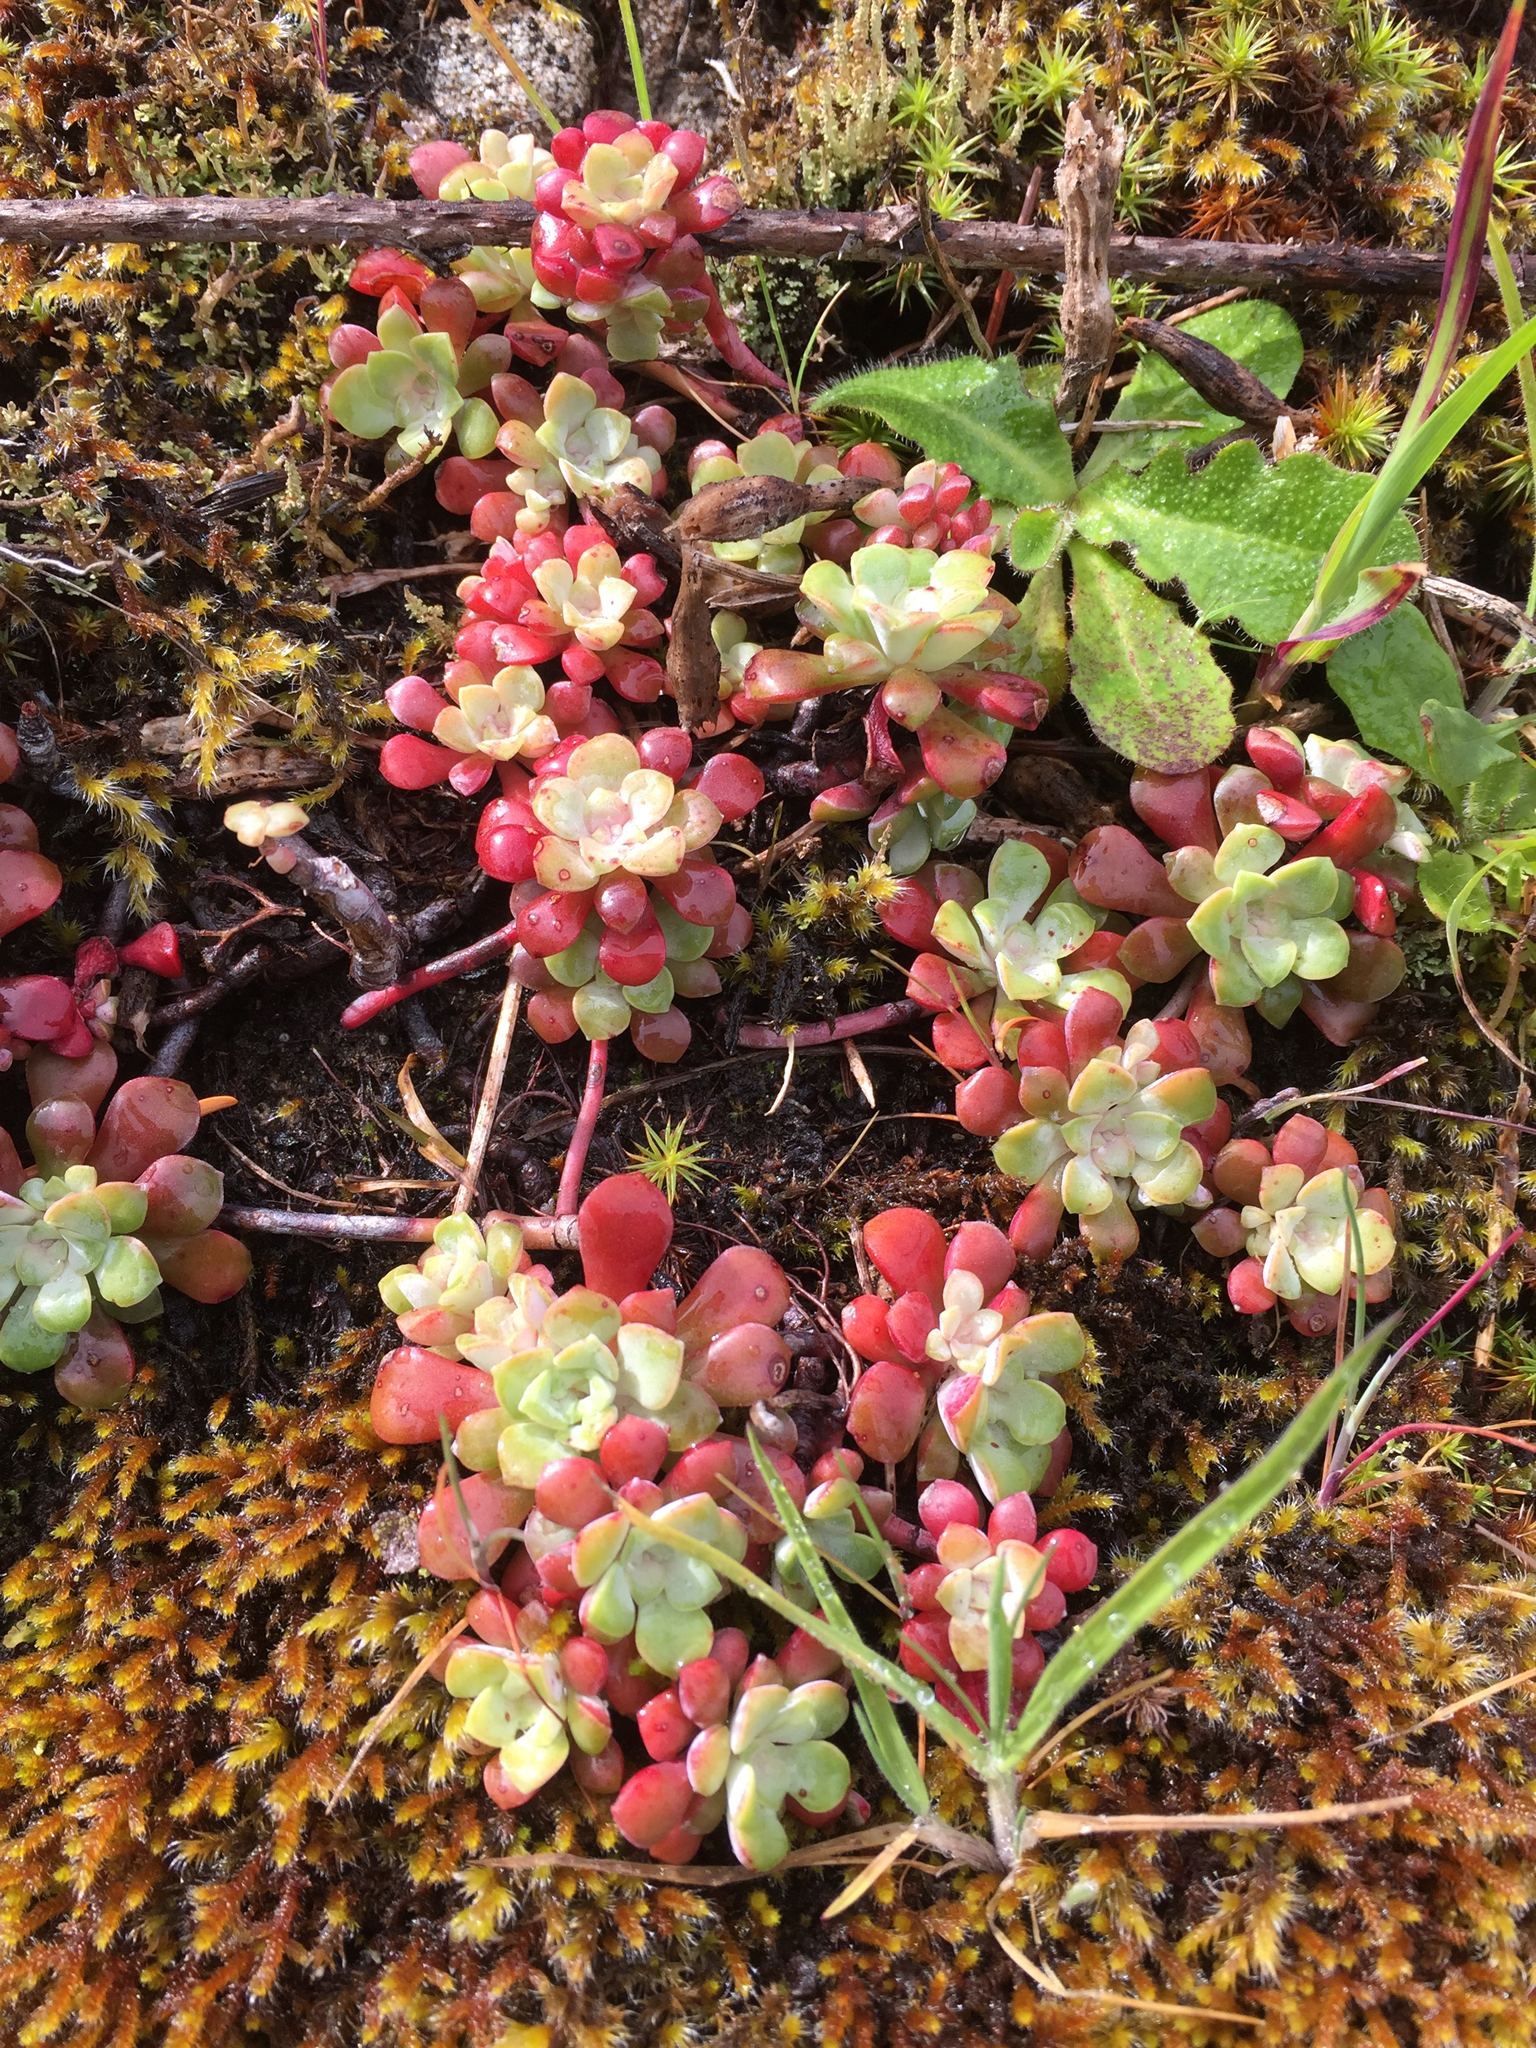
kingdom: Plantae
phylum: Tracheophyta
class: Magnoliopsida
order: Saxifragales
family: Crassulaceae
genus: Sedum
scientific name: Sedum spathulifolium
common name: Colorado stonecrop
